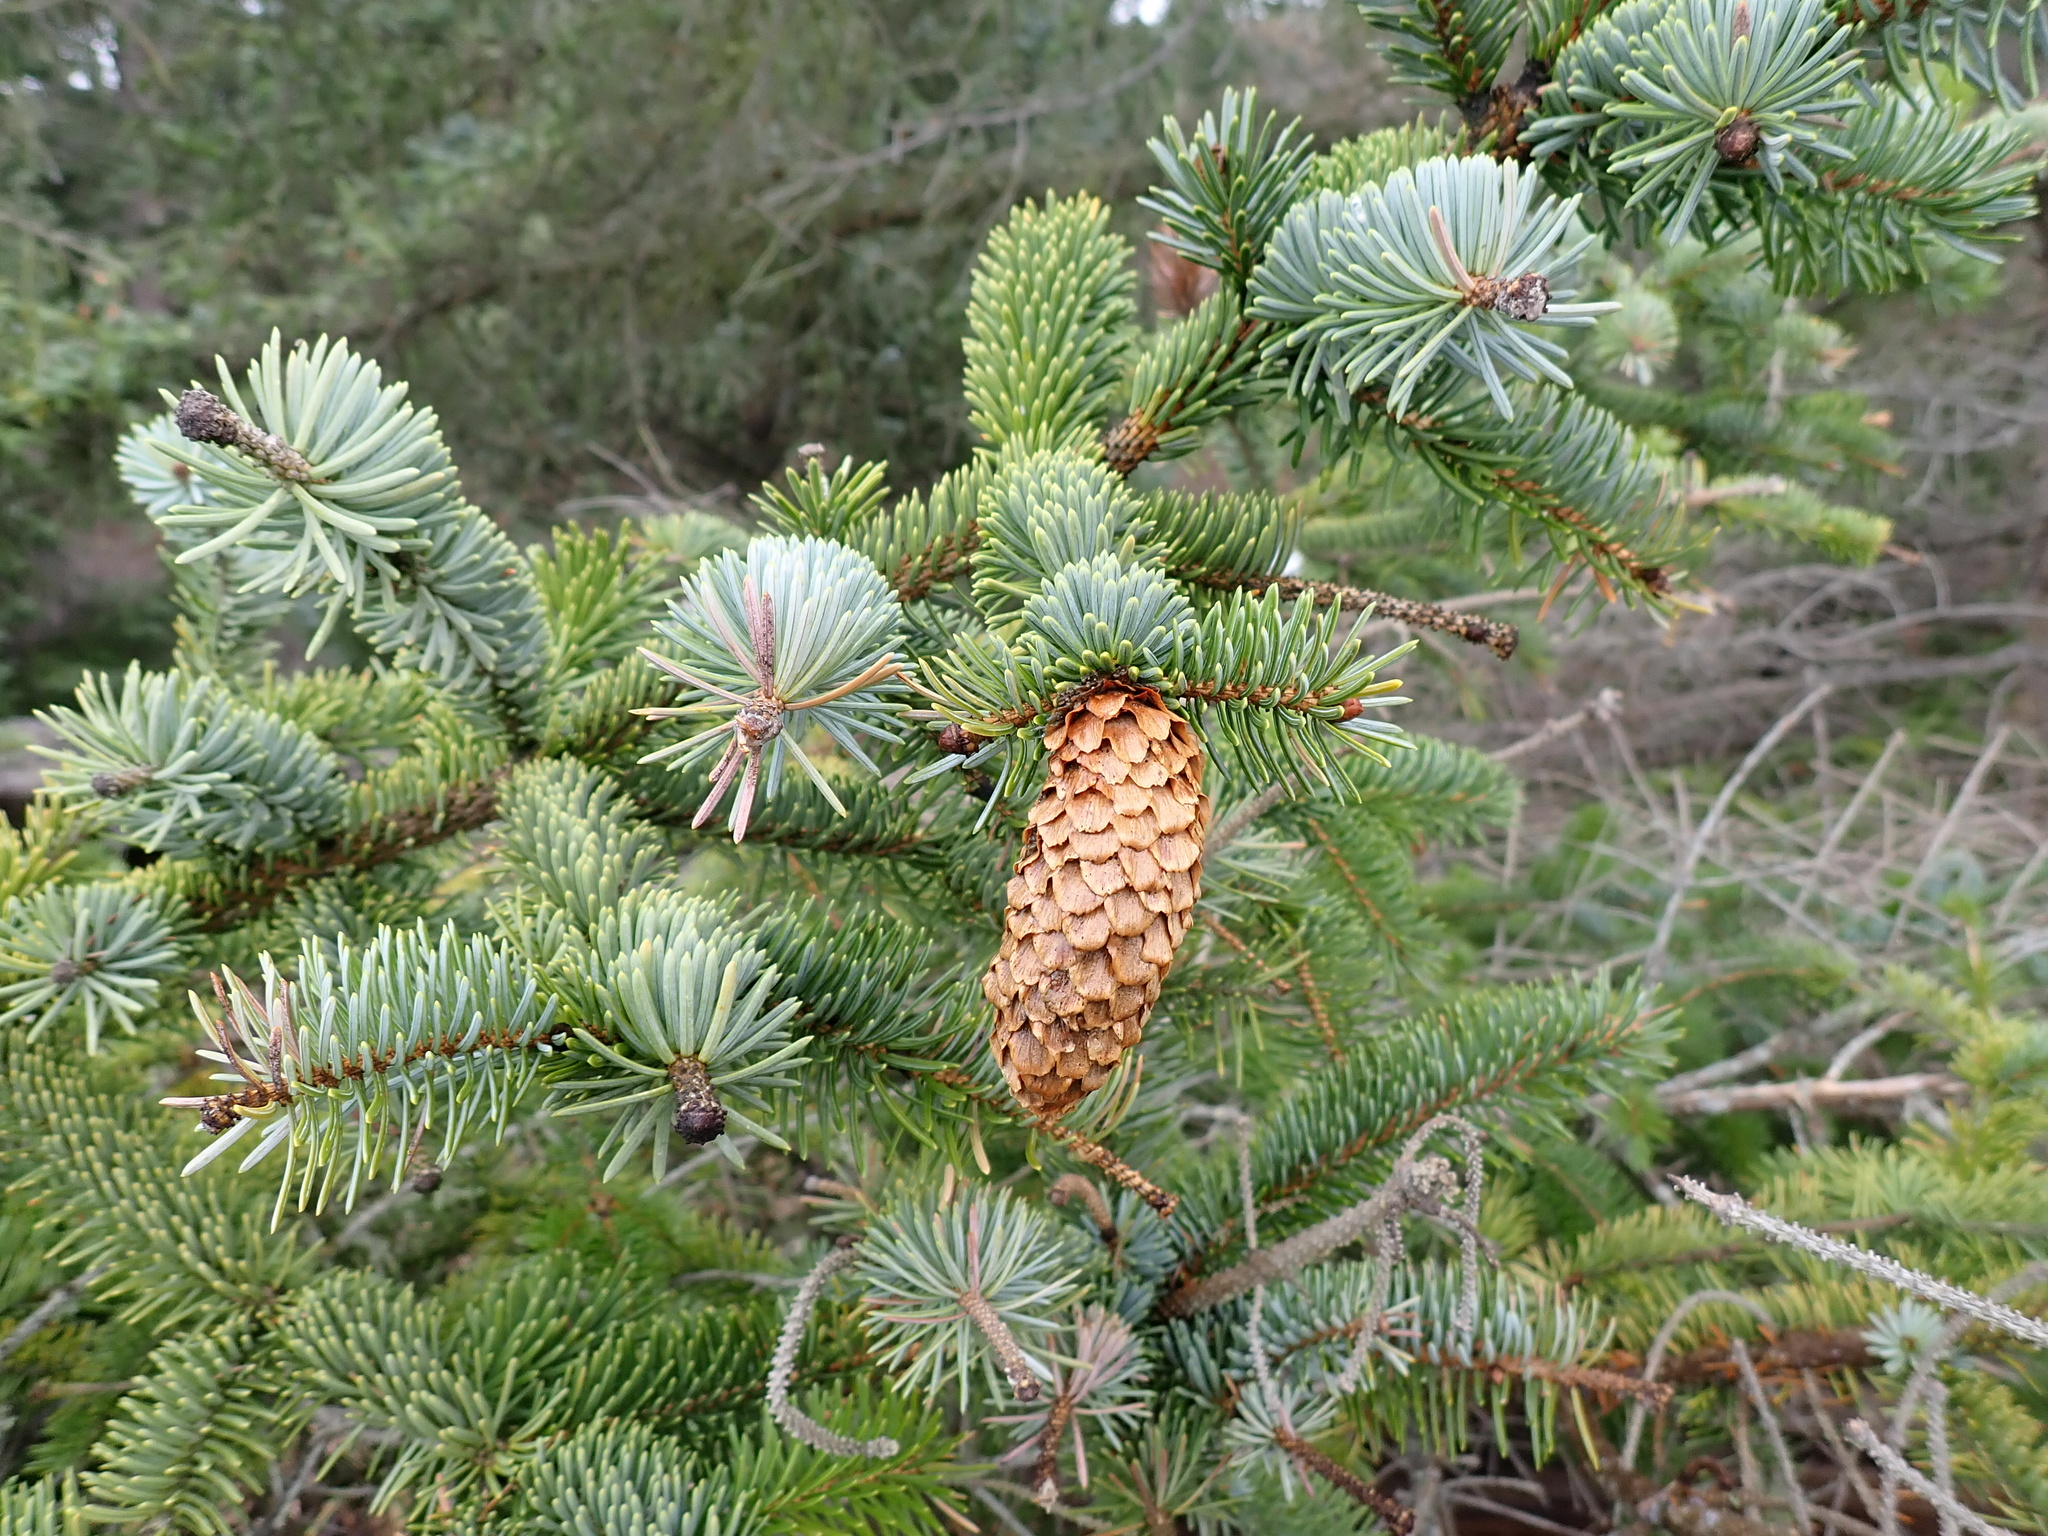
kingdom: Plantae
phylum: Tracheophyta
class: Pinopsida
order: Pinales
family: Pinaceae
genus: Picea
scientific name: Picea sitchensis
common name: Sitka spruce
